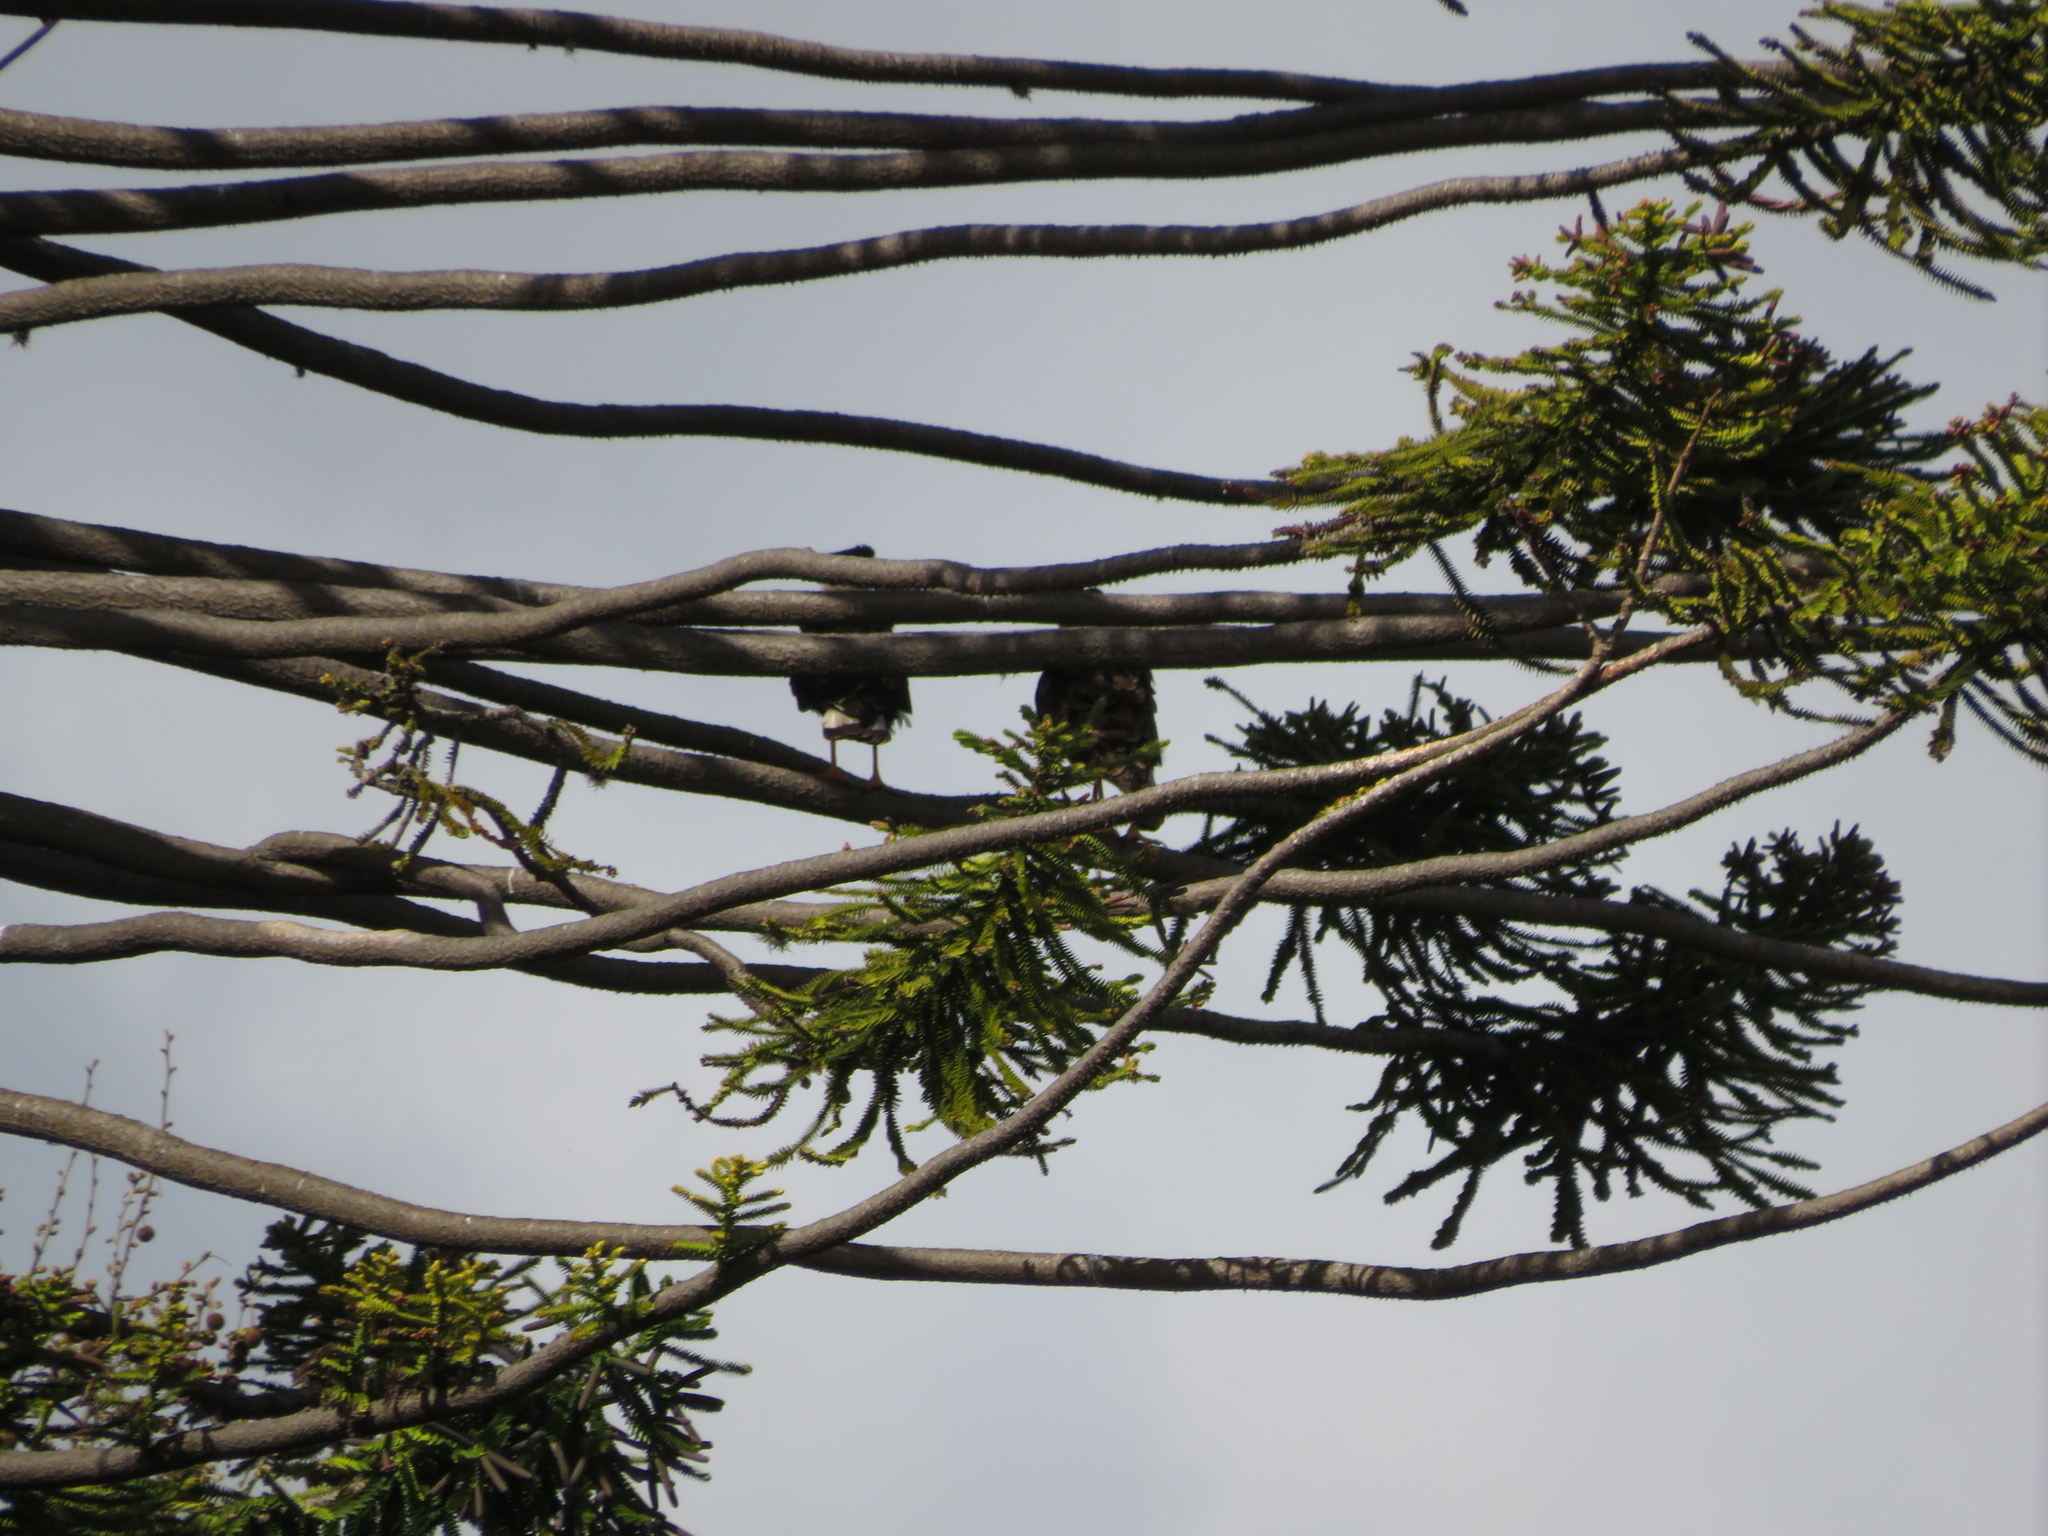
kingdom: Animalia
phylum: Chordata
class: Aves
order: Falconiformes
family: Falconidae
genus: Caracara
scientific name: Caracara plancus
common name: Southern caracara
